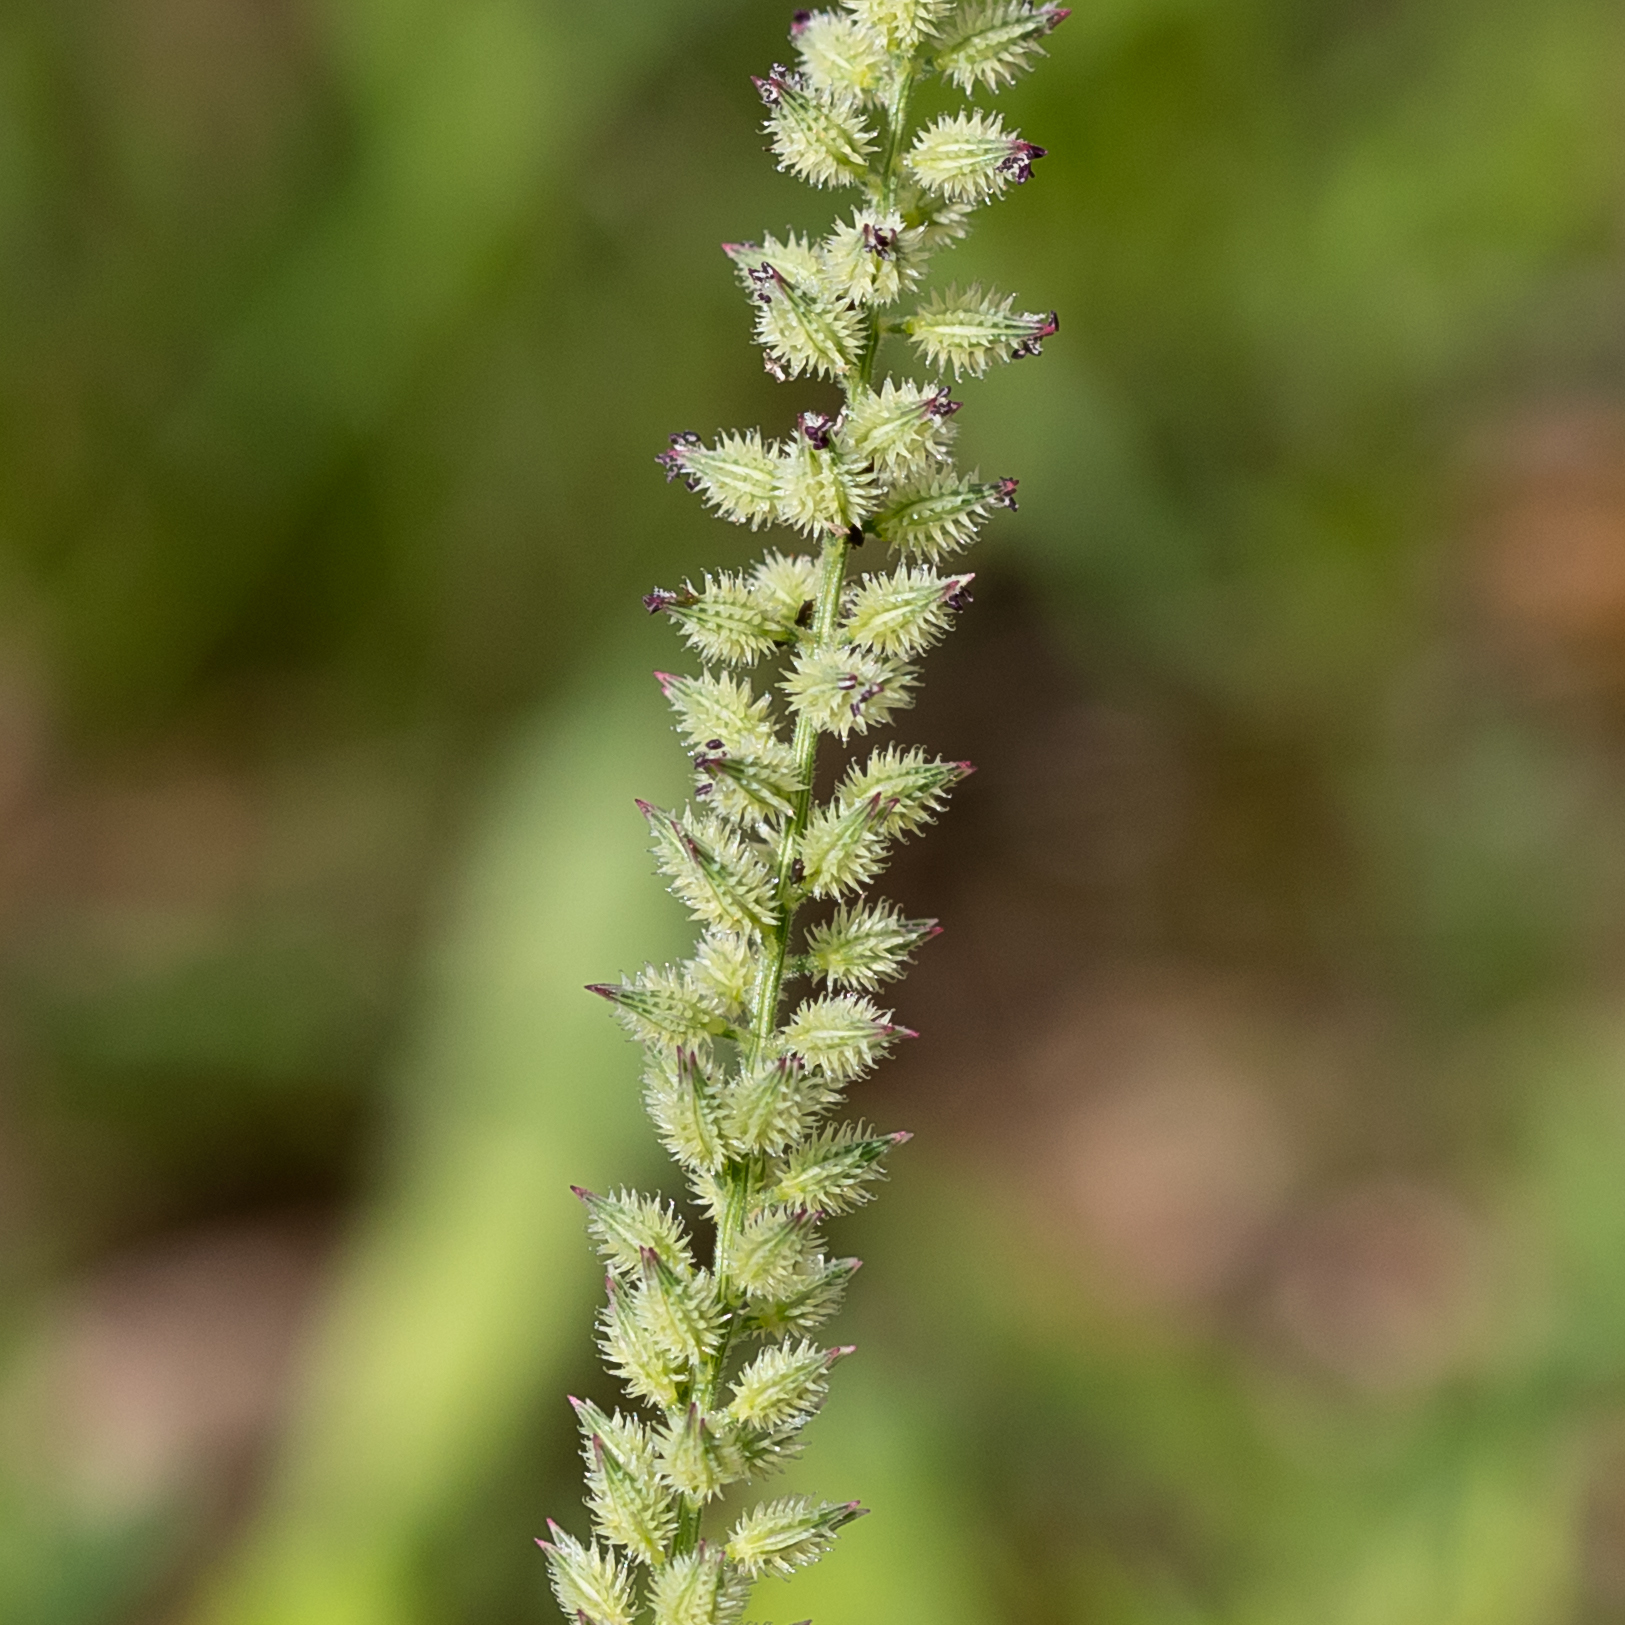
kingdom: Plantae
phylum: Tracheophyta
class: Liliopsida
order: Poales
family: Poaceae
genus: Tragus
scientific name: Tragus australianus
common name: Australian bur-grass
